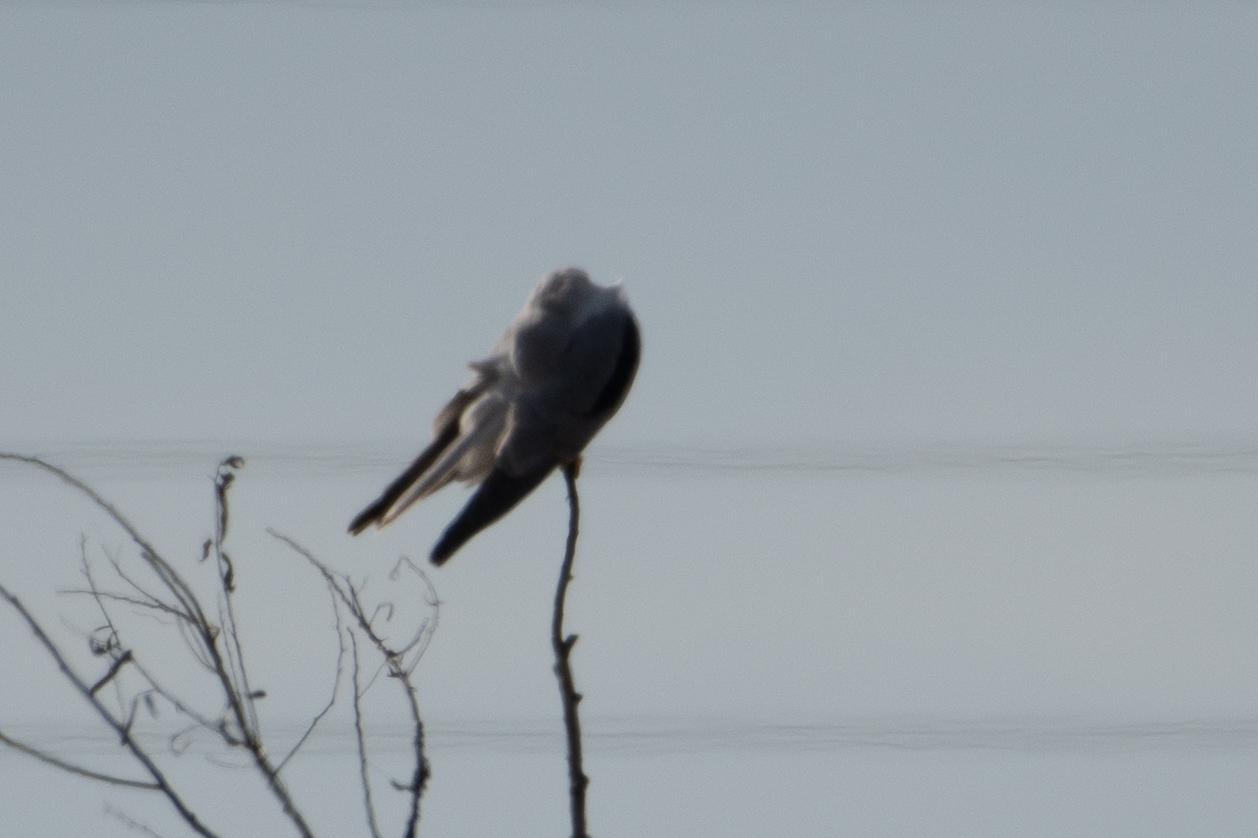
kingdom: Animalia
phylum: Chordata
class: Aves
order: Accipitriformes
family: Accipitridae
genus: Elanus
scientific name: Elanus leucurus
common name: White-tailed kite
